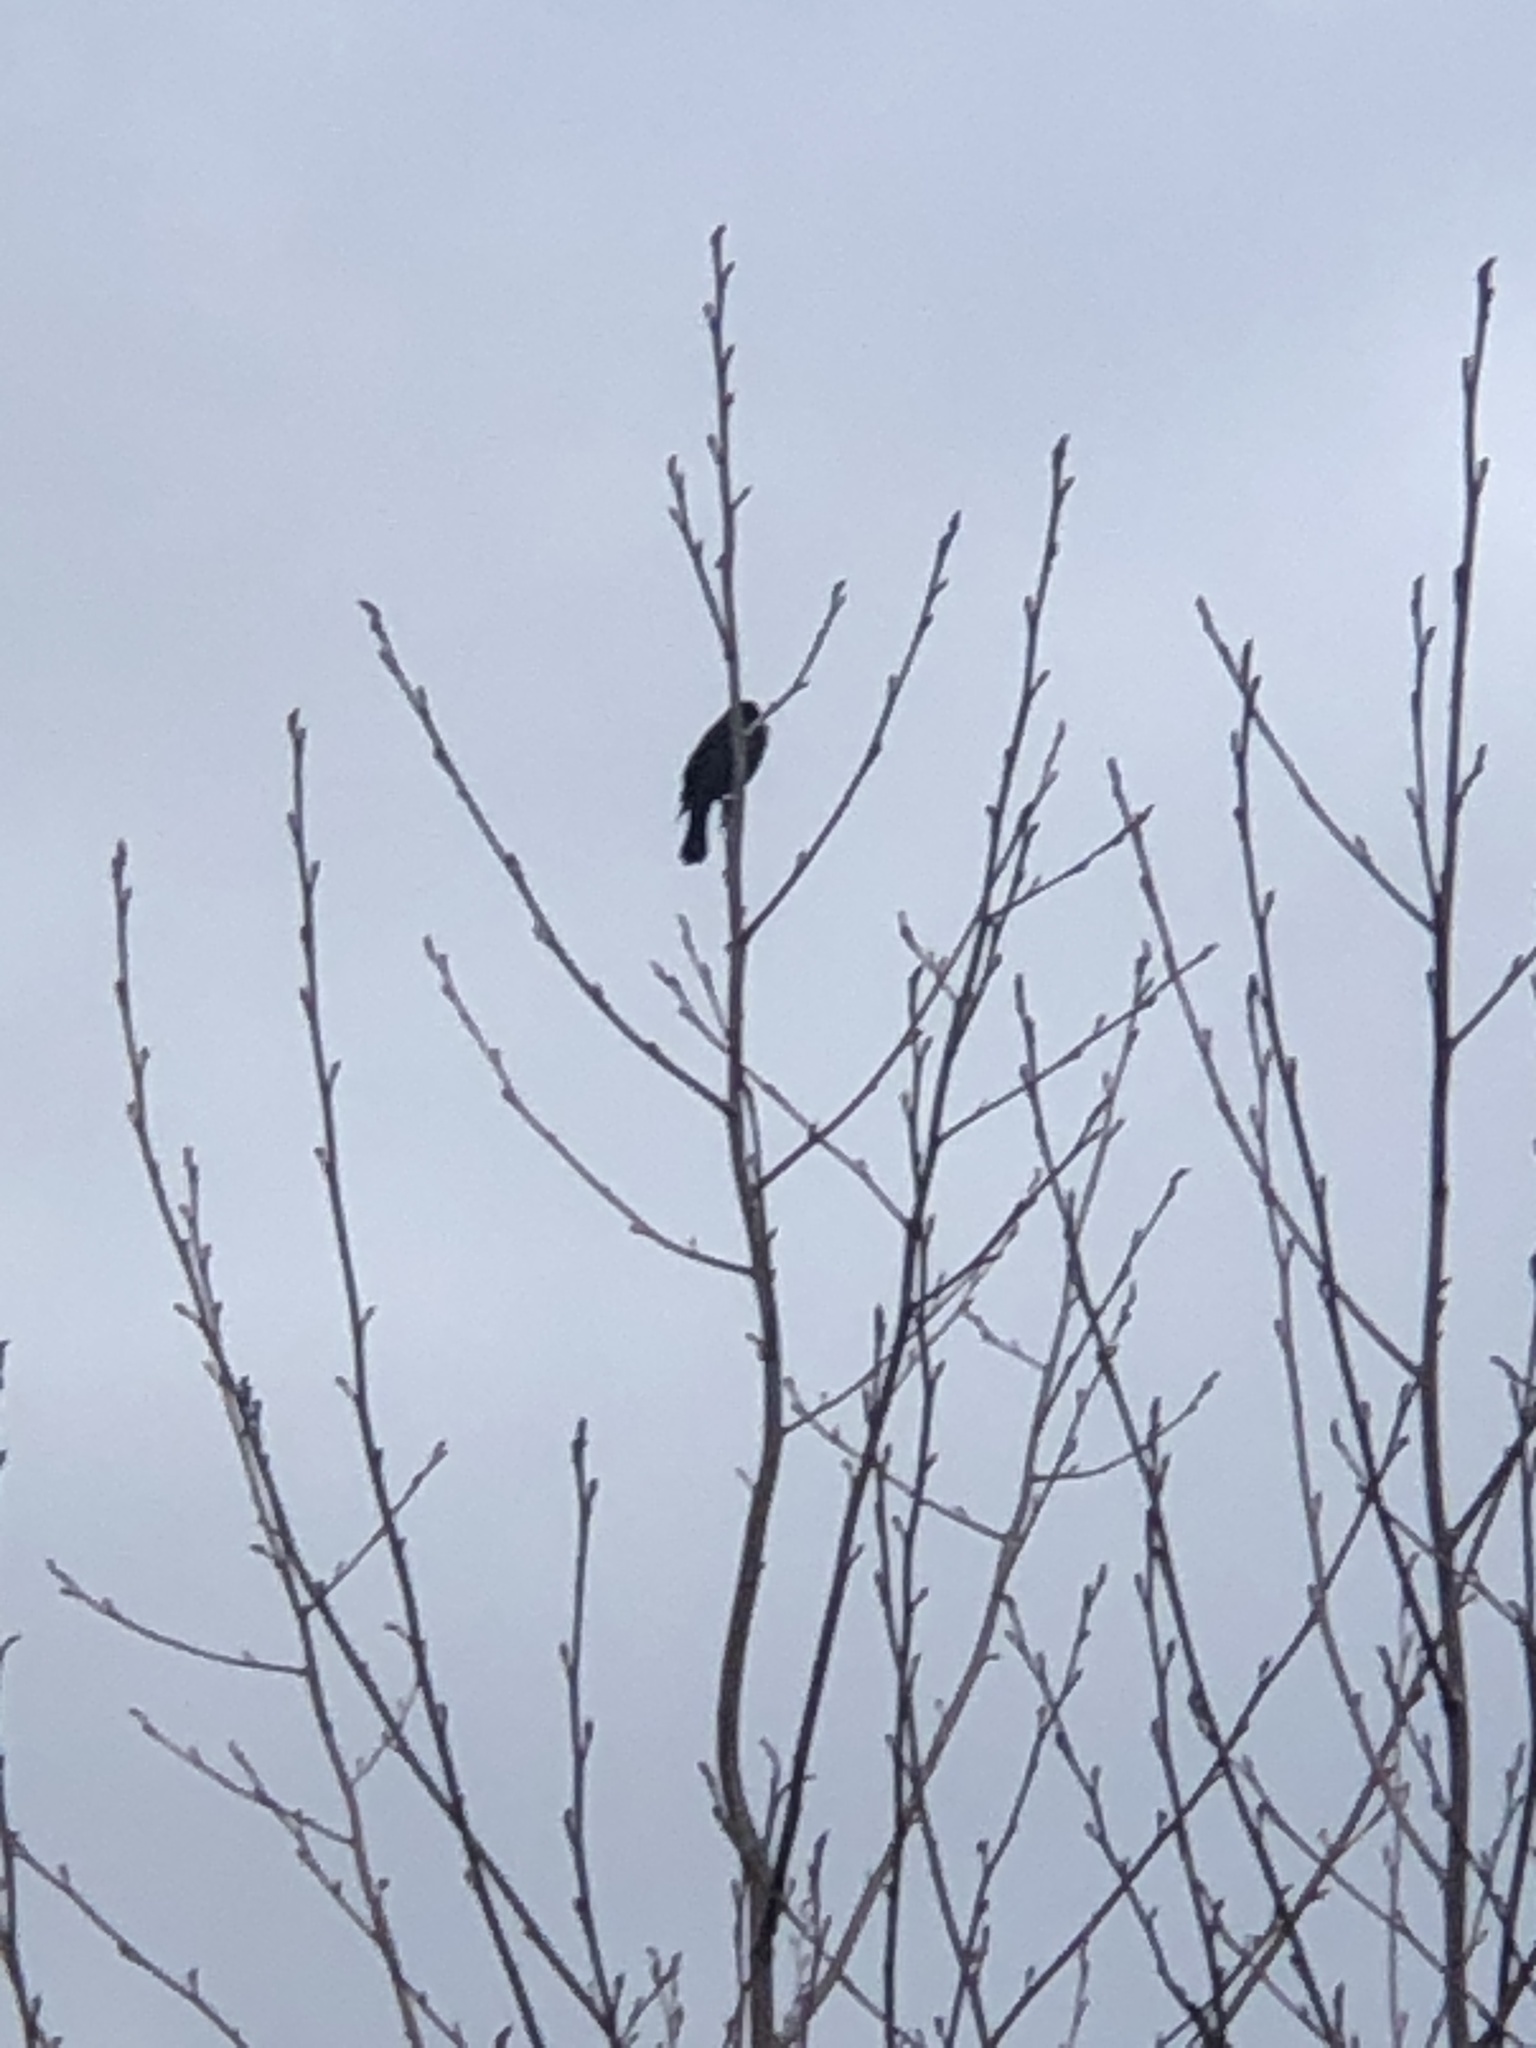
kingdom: Animalia
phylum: Chordata
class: Aves
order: Passeriformes
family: Icteridae
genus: Agelaius
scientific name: Agelaius phoeniceus
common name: Red-winged blackbird
